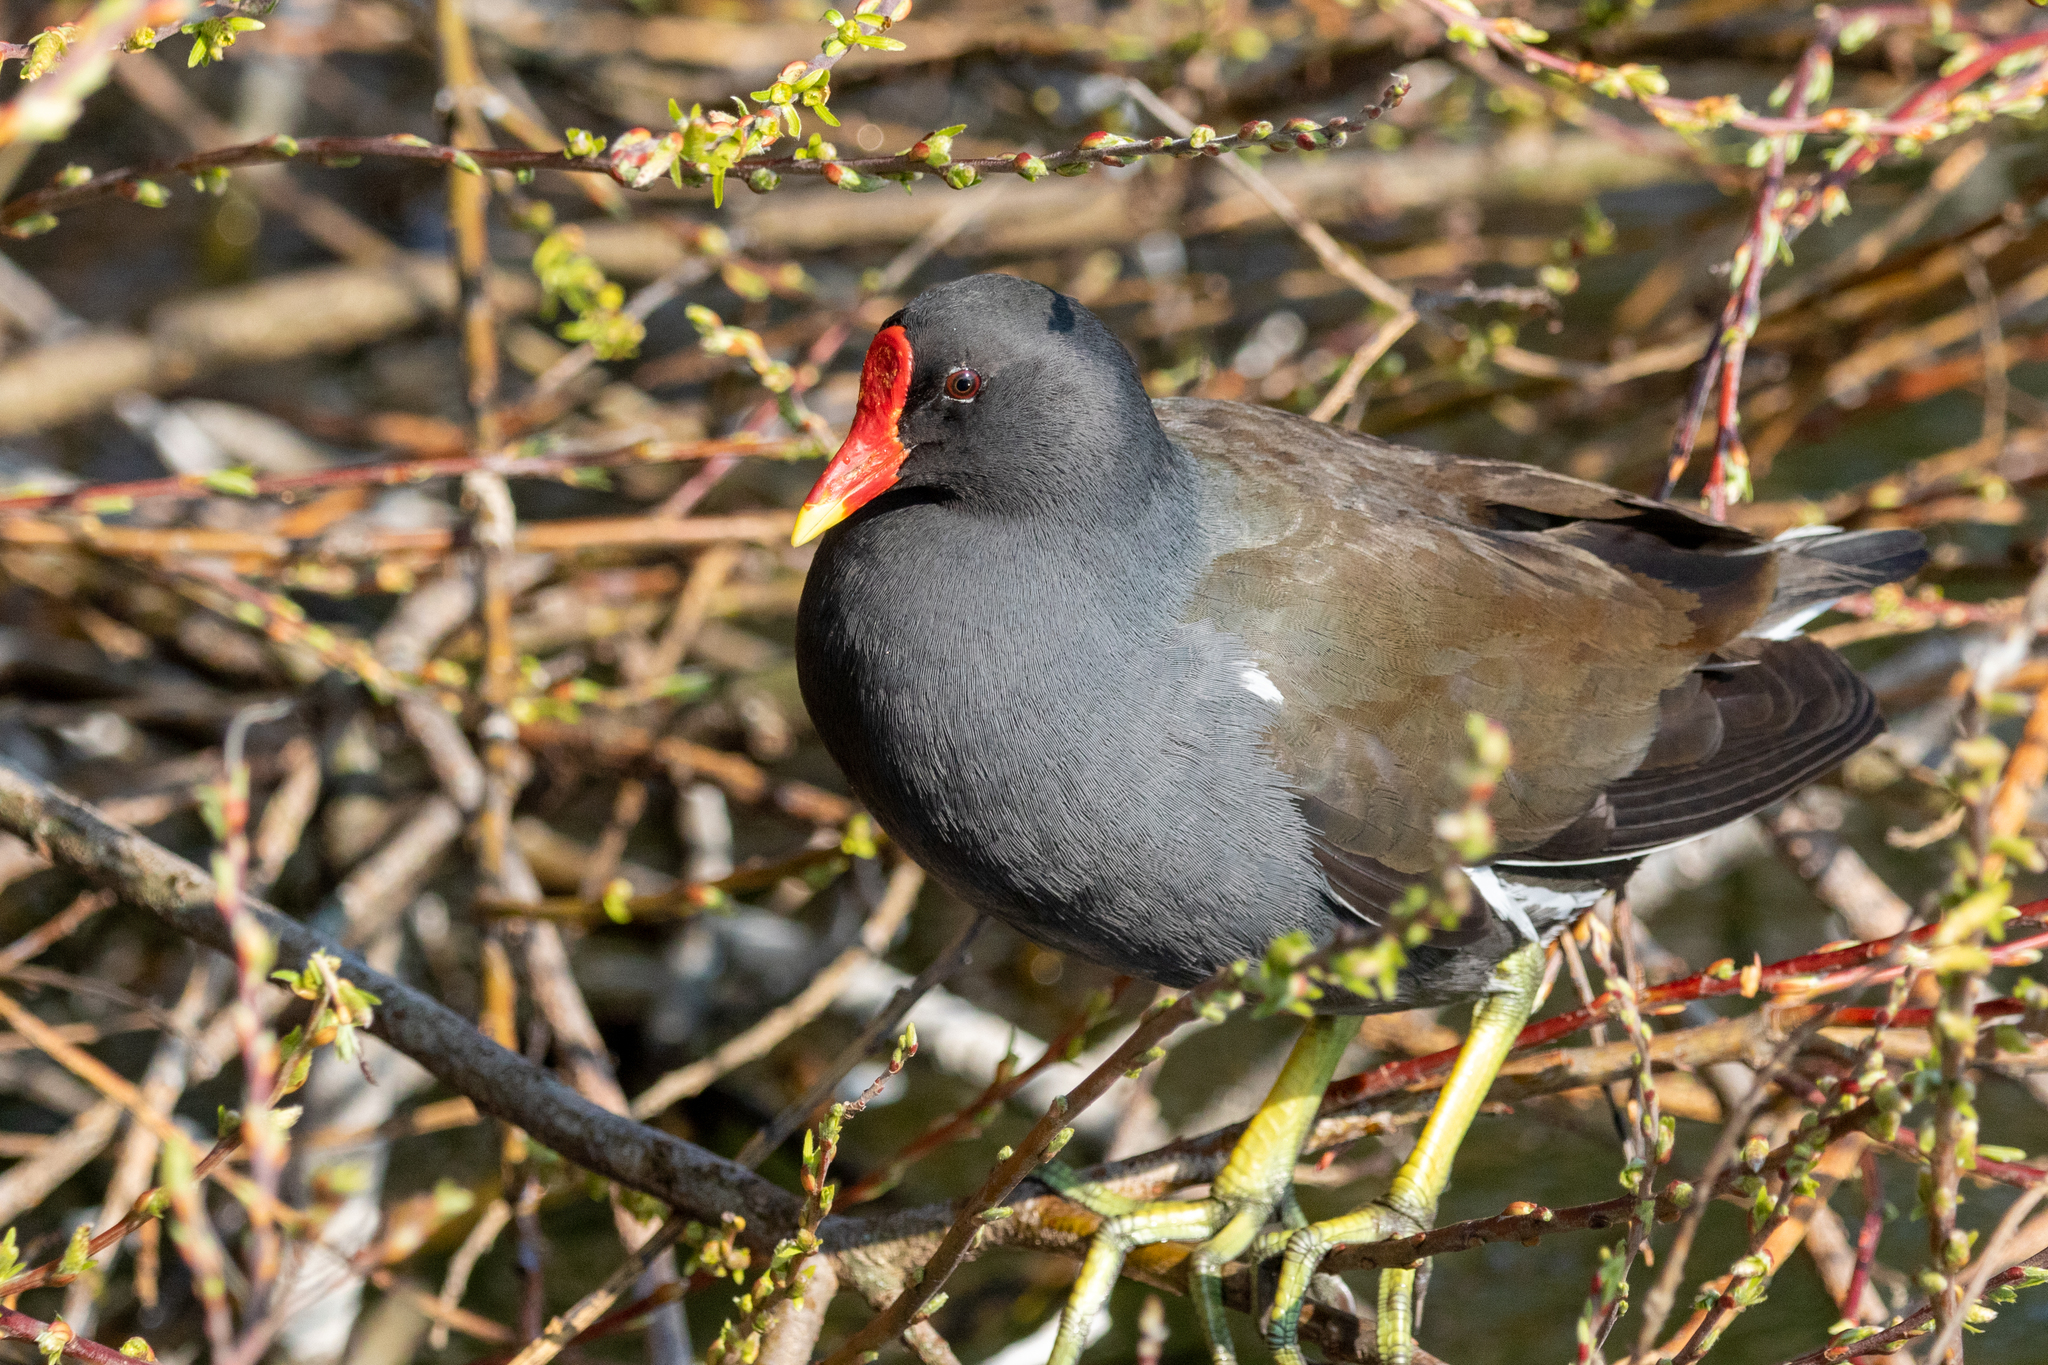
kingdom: Animalia
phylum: Chordata
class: Aves
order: Gruiformes
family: Rallidae
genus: Gallinula
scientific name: Gallinula chloropus
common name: Common moorhen
